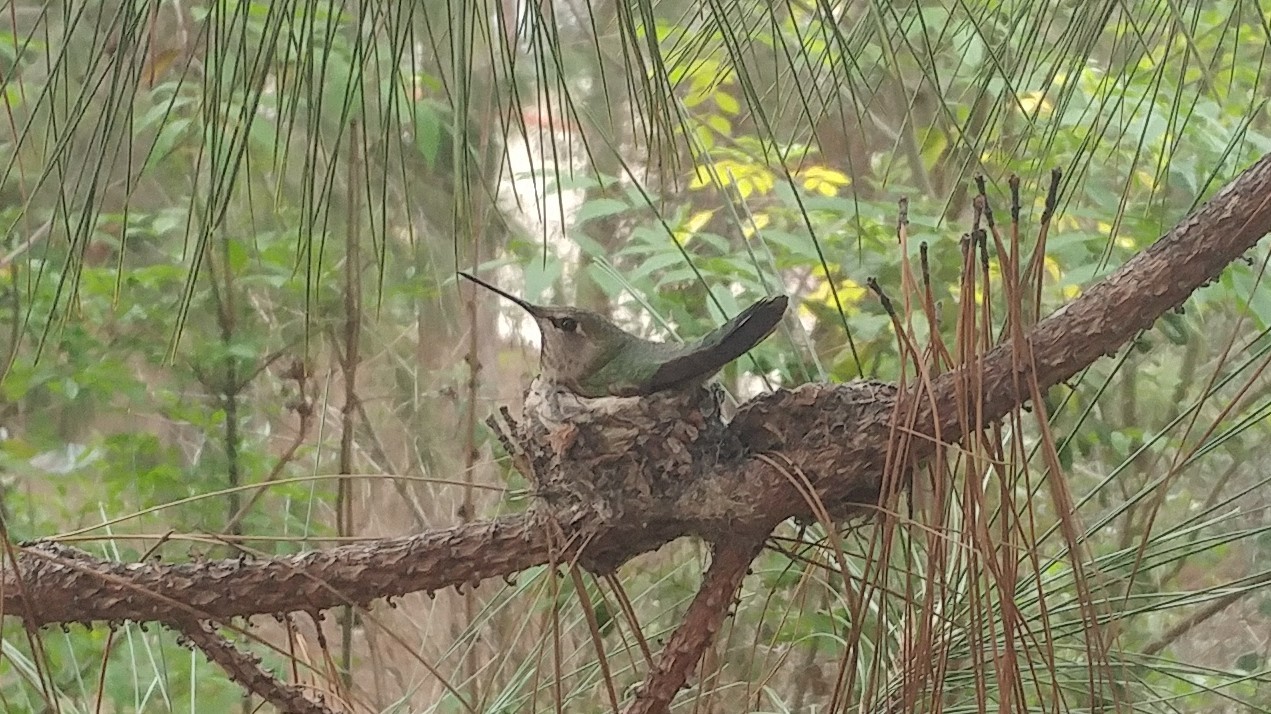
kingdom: Animalia
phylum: Chordata
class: Aves
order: Apodiformes
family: Trochilidae
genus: Calypte
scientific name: Calypte anna
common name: Anna's hummingbird
